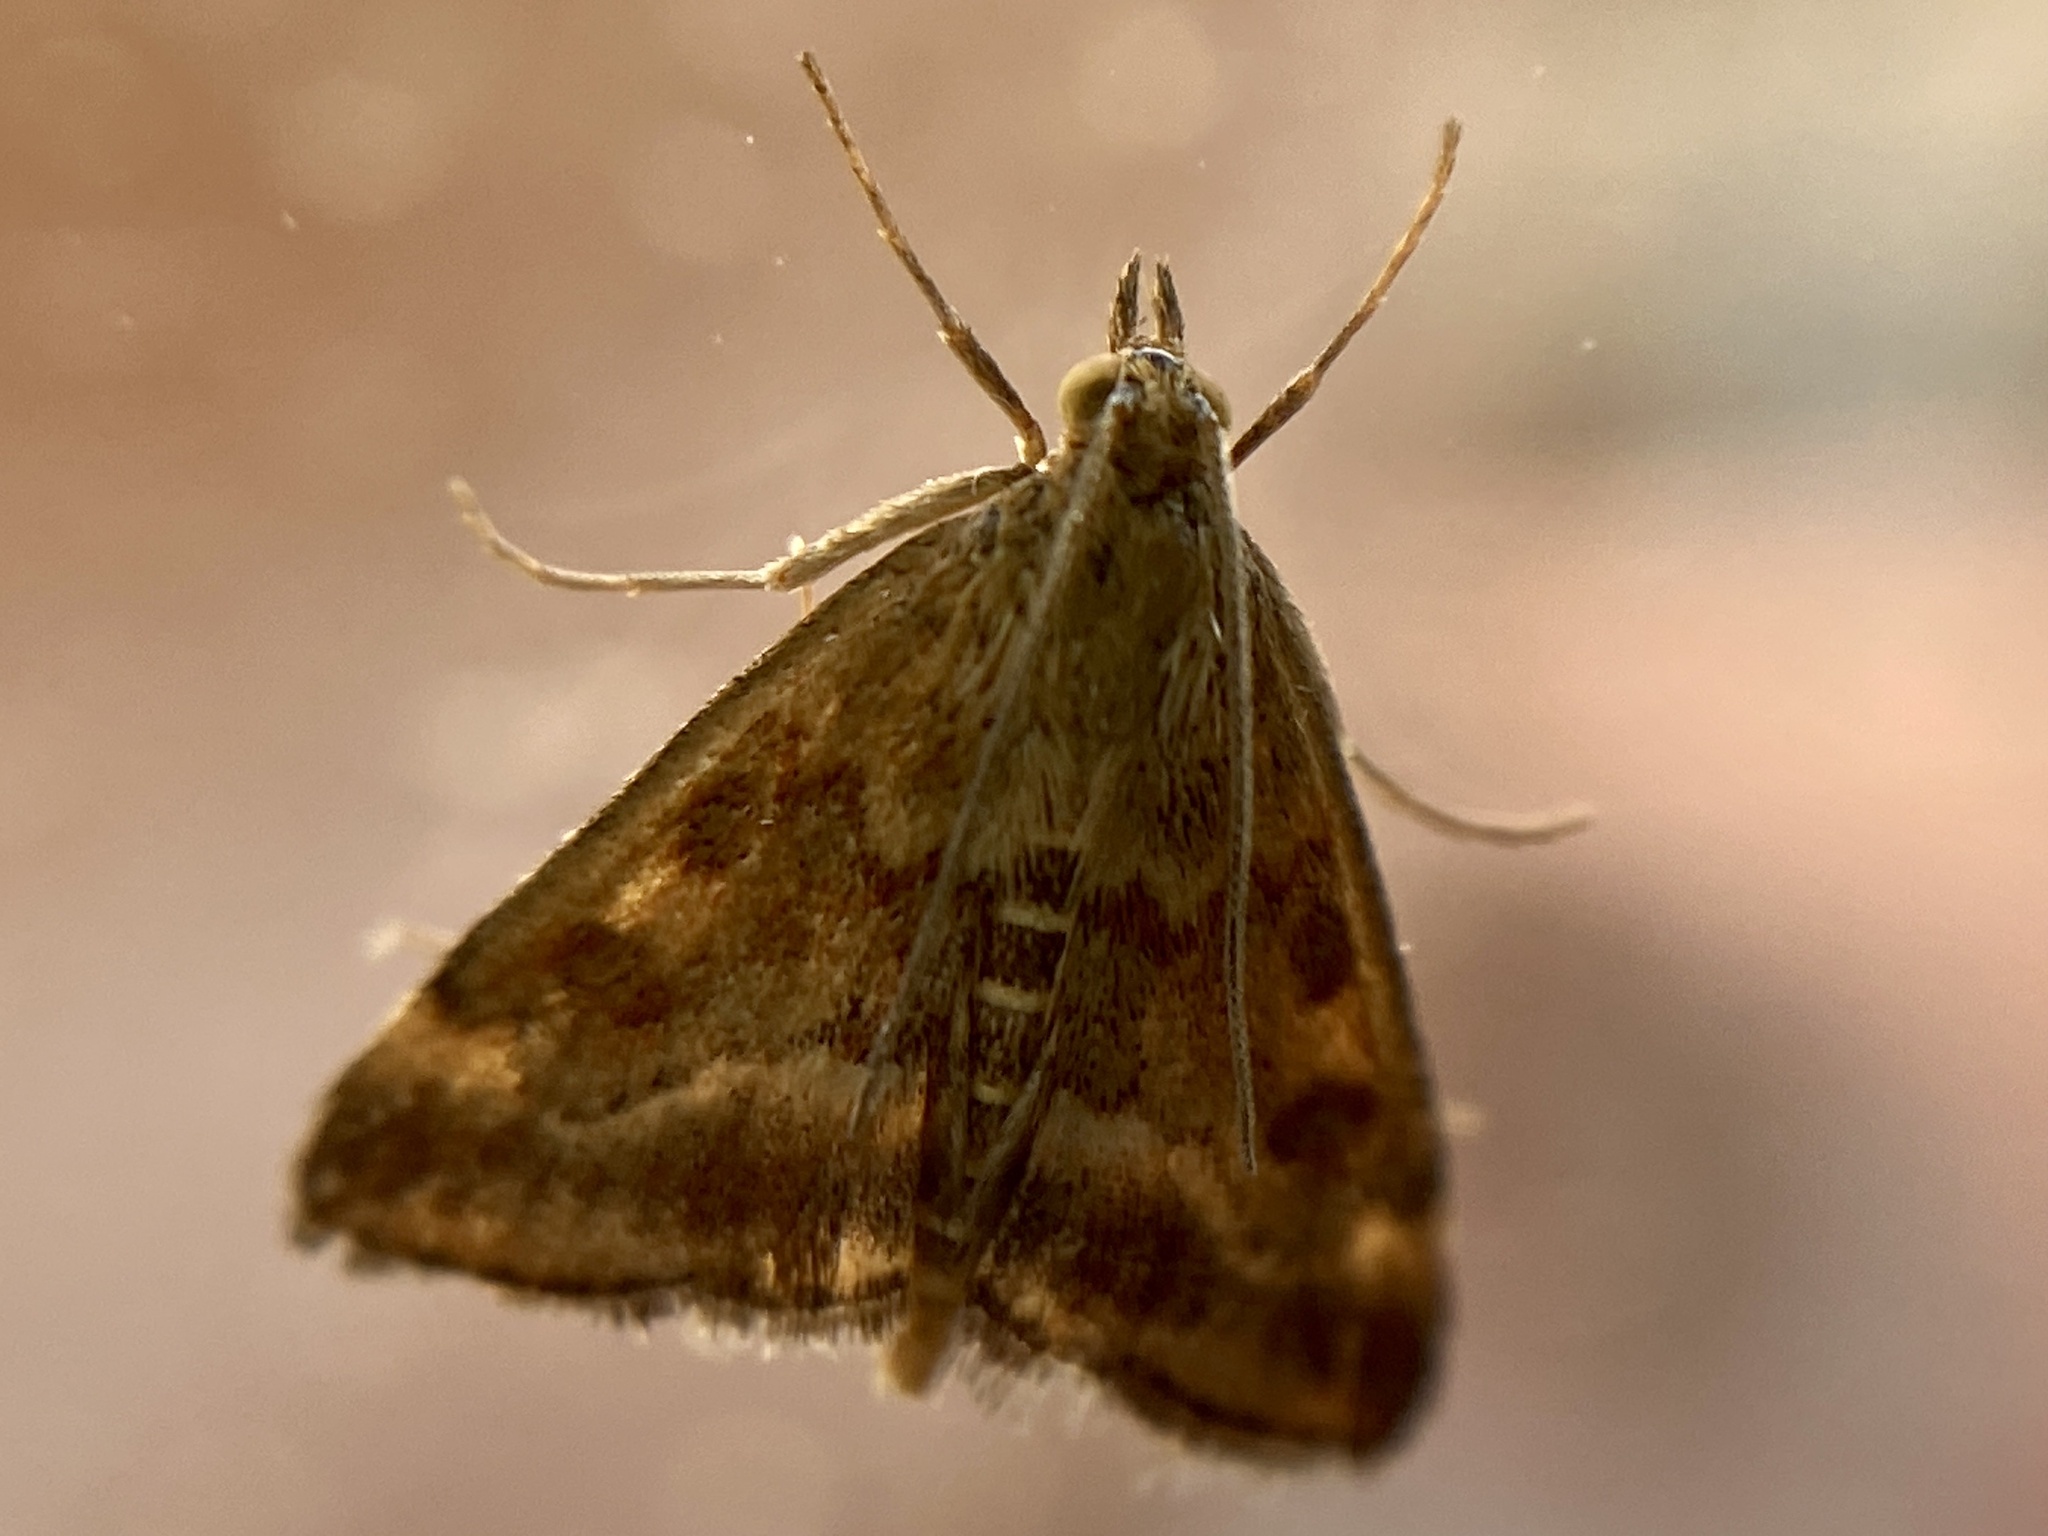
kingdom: Animalia
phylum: Arthropoda
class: Insecta
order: Lepidoptera
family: Crambidae
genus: Pyrausta
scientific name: Pyrausta despicata
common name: Straw-barred pearl
